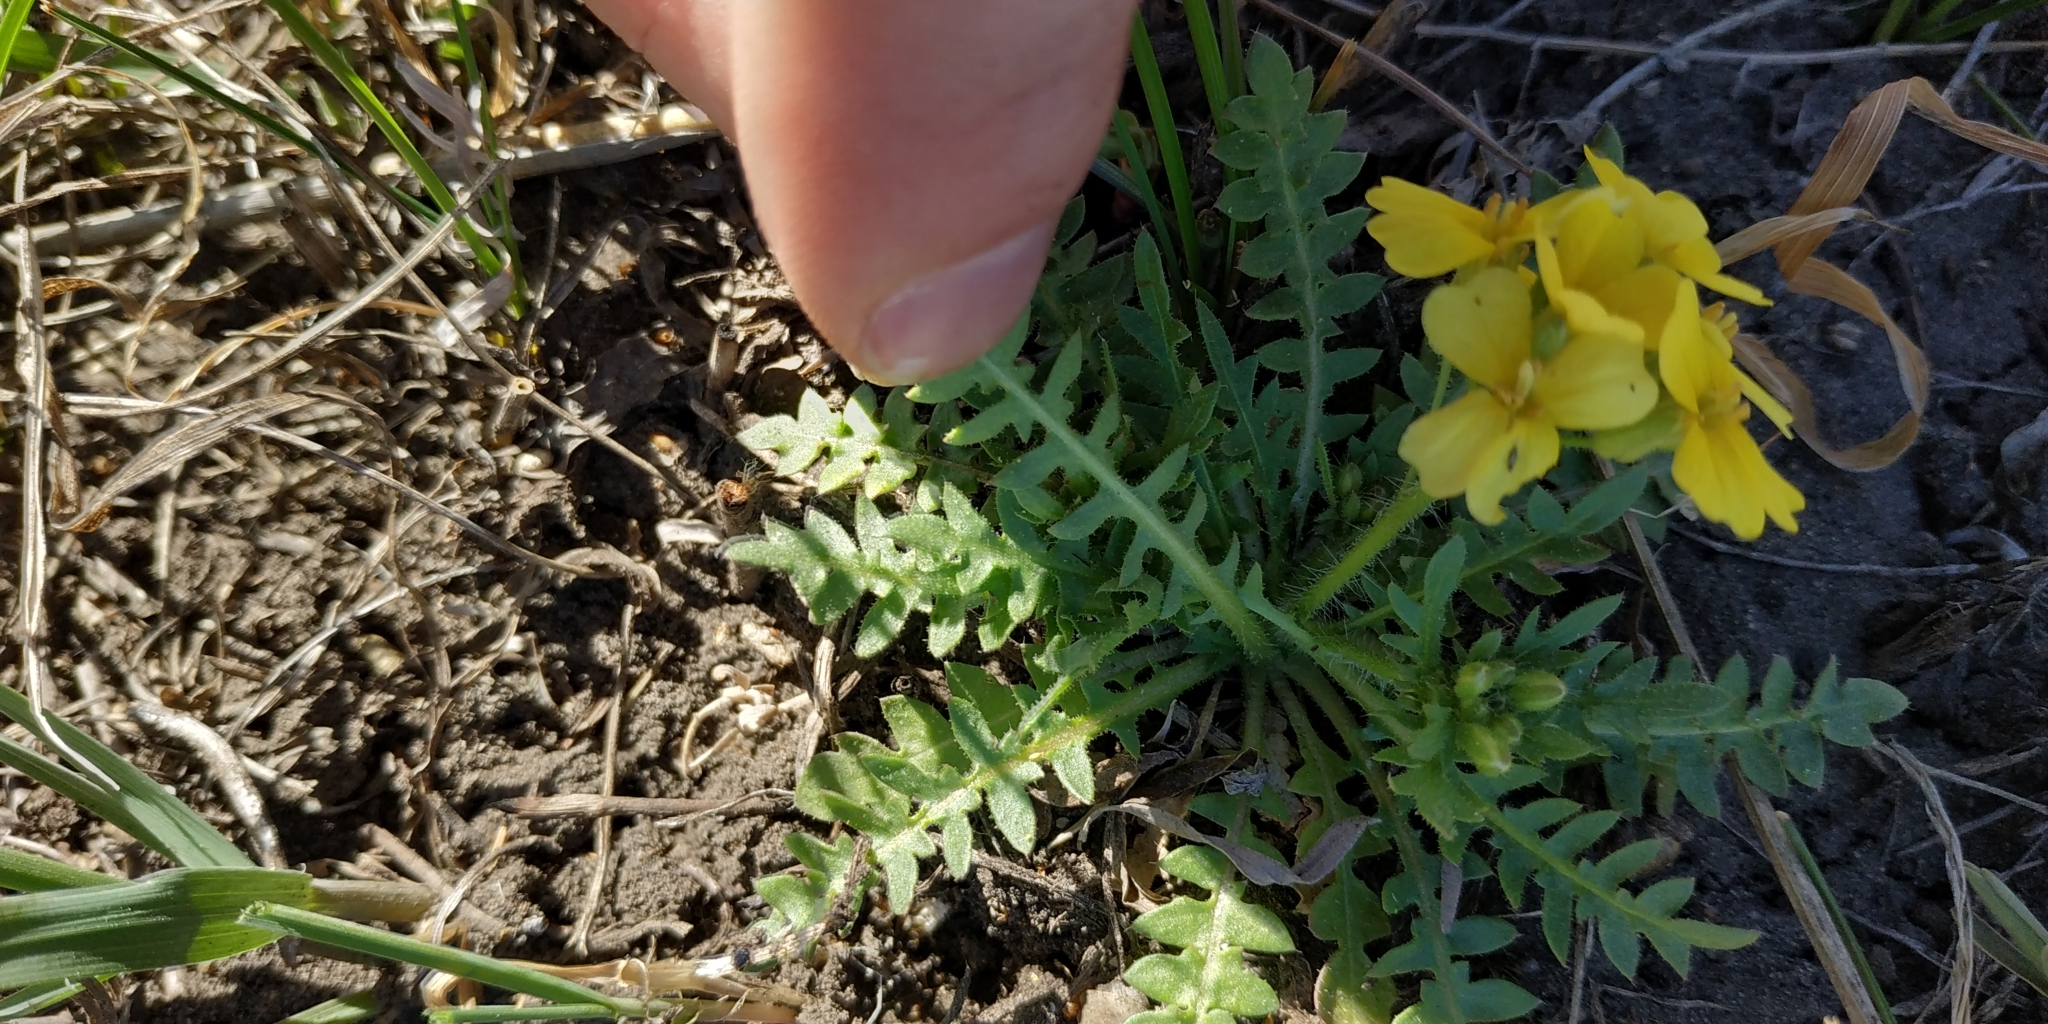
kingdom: Plantae
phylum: Tracheophyta
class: Magnoliopsida
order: Brassicales
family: Brassicaceae
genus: Chorispora
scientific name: Chorispora sibirica
